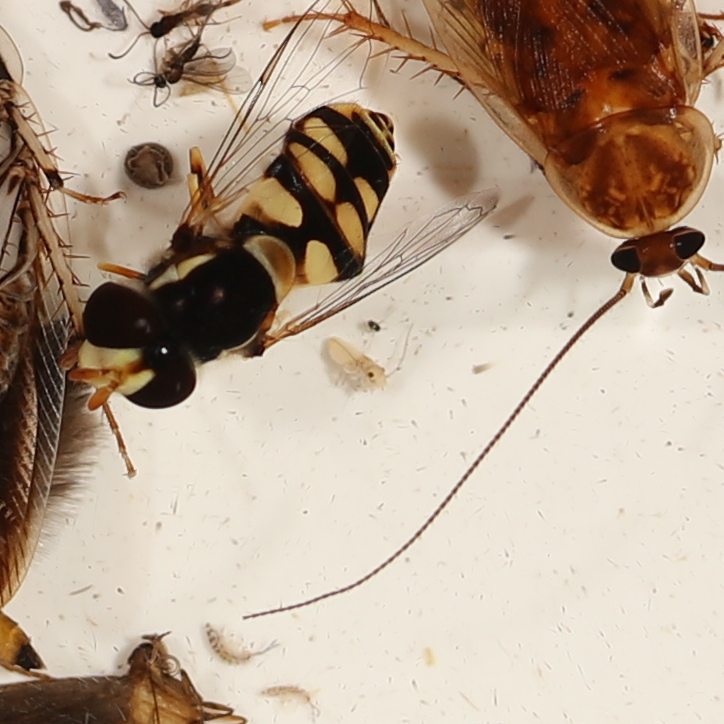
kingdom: Animalia
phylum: Arthropoda
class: Insecta
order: Diptera
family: Syrphidae
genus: Simosyrphus
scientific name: Simosyrphus grandicornis
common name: Hoverfly
